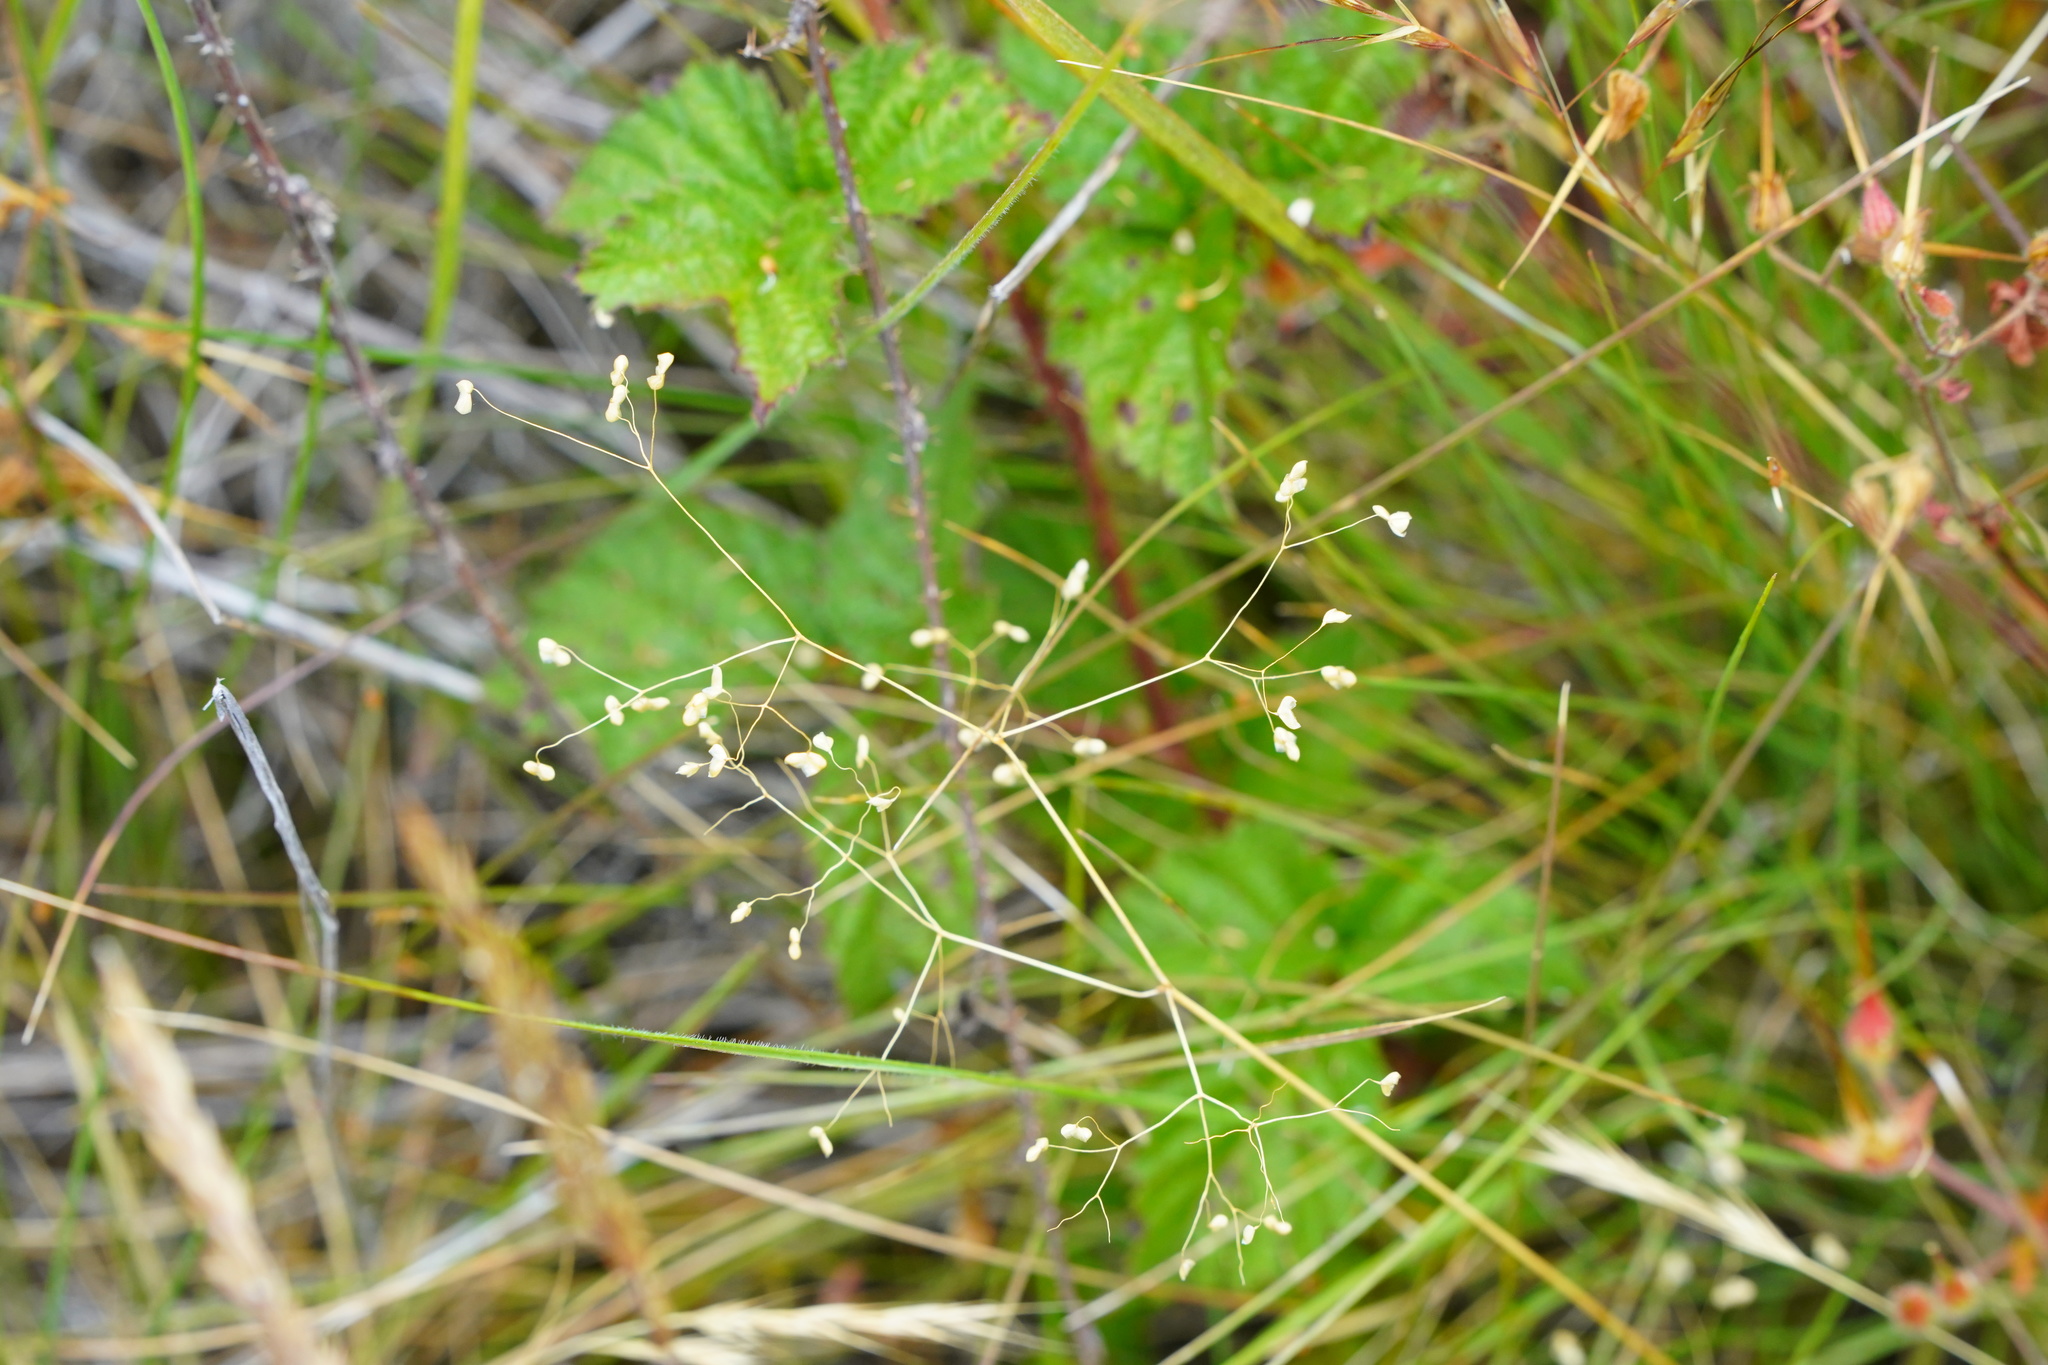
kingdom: Plantae
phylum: Tracheophyta
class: Liliopsida
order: Poales
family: Poaceae
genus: Briza
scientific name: Briza minor
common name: Lesser quaking-grass
